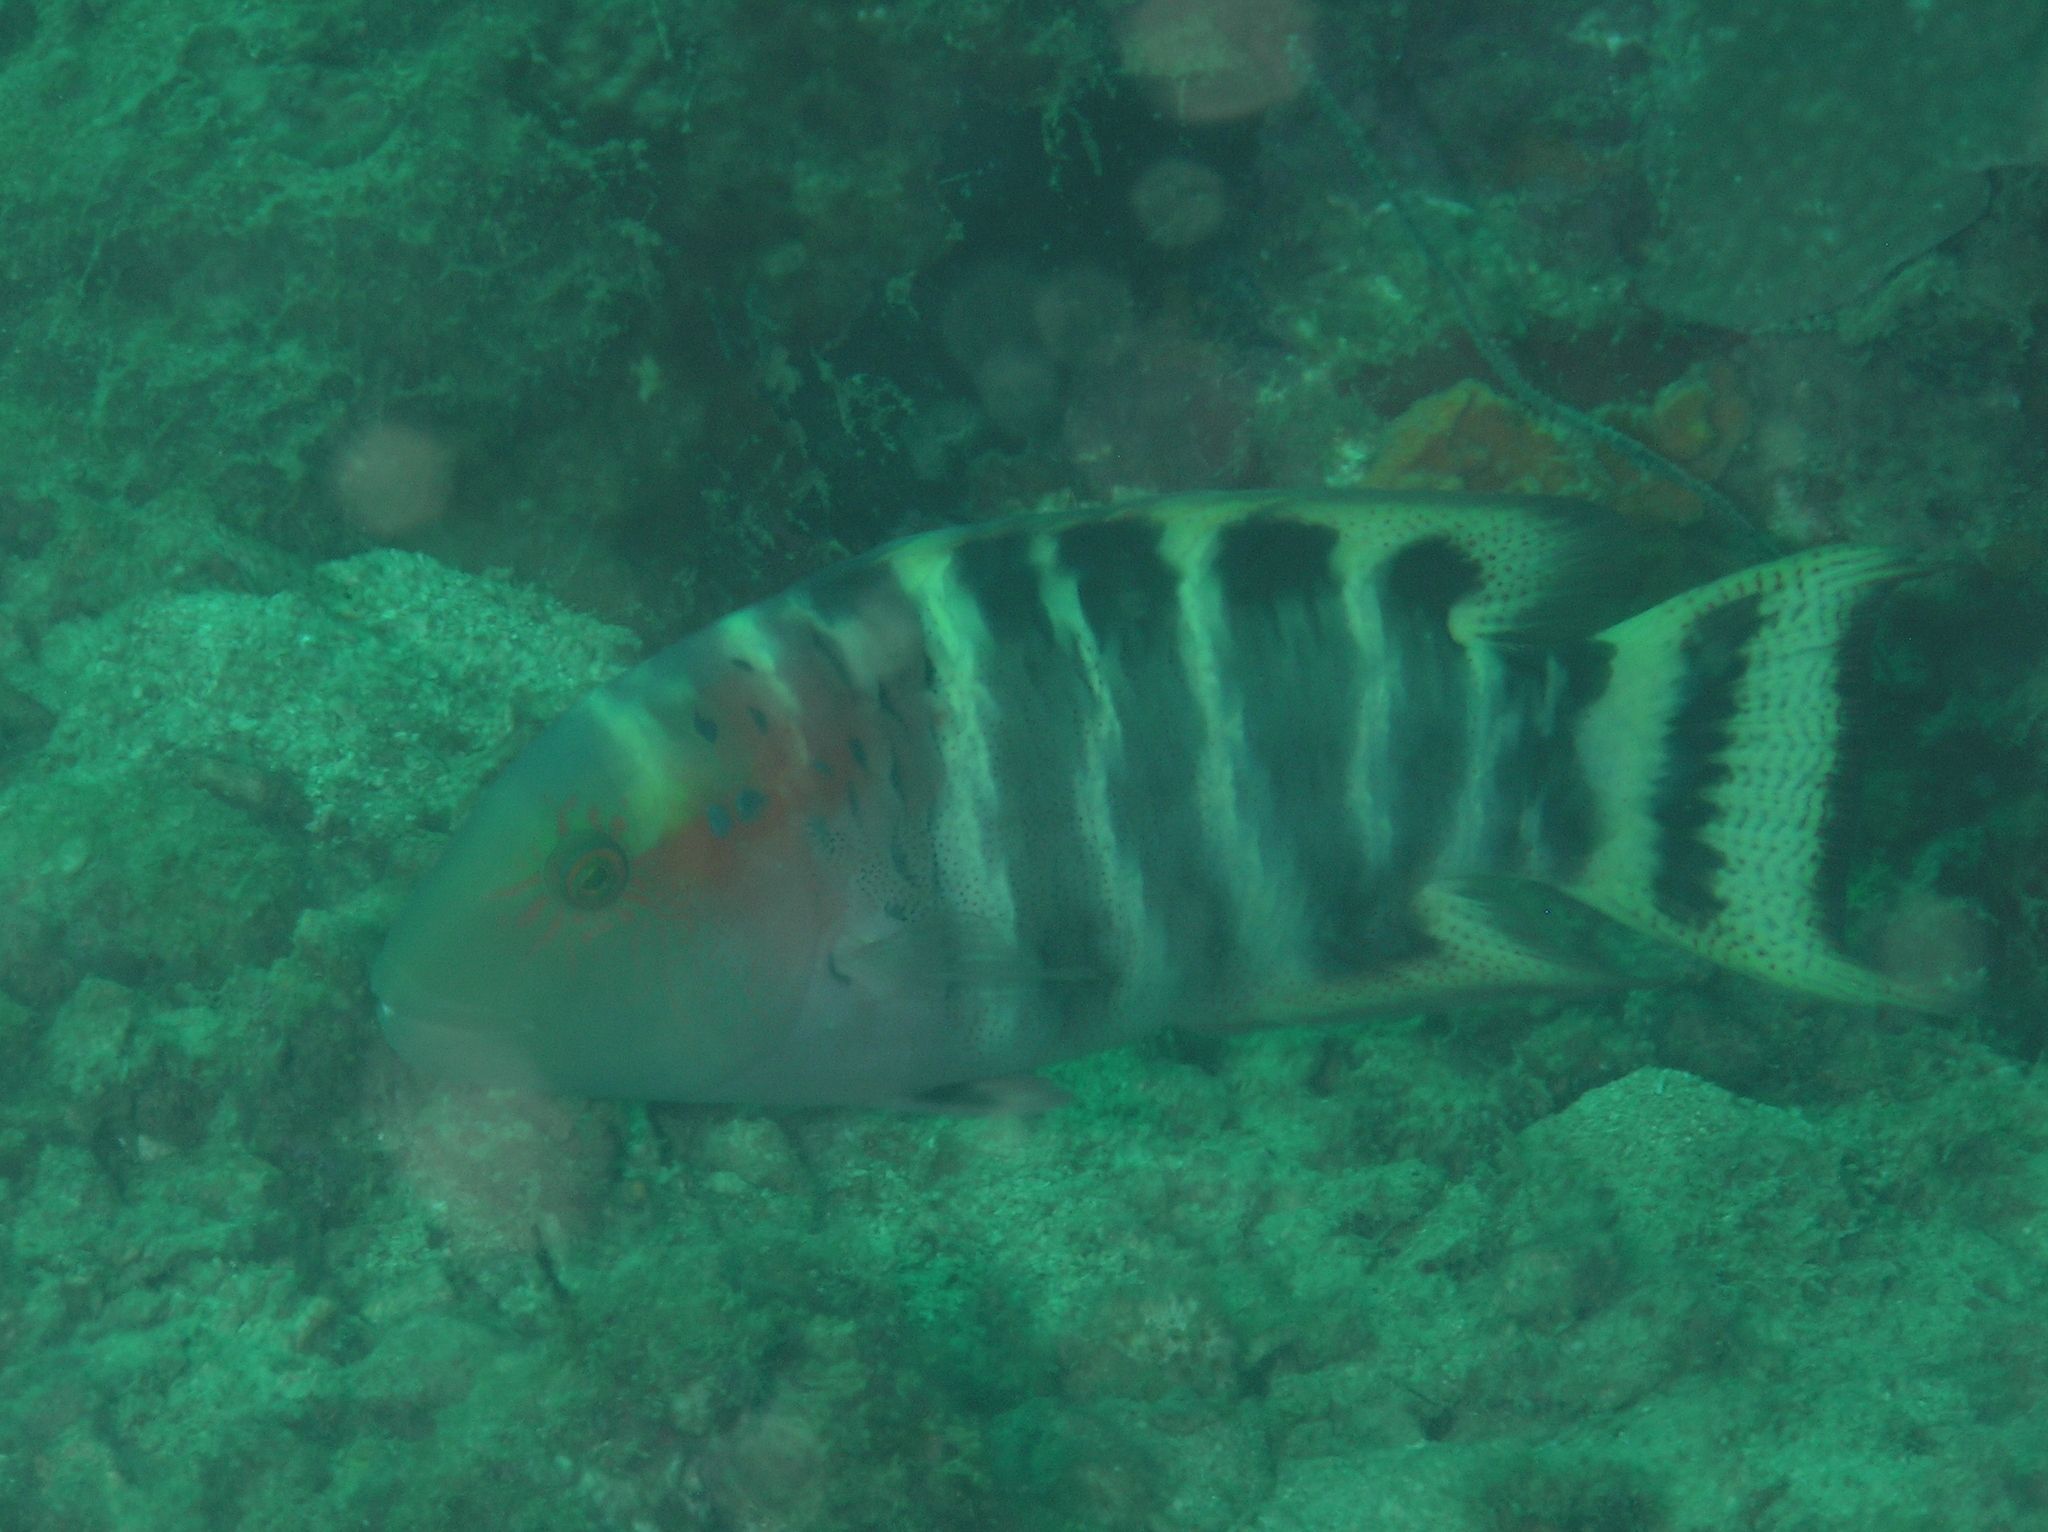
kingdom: Animalia
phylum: Chordata
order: Perciformes
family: Labridae
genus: Cheilinus
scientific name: Cheilinus fasciatus
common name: Red-breasted wrasse
